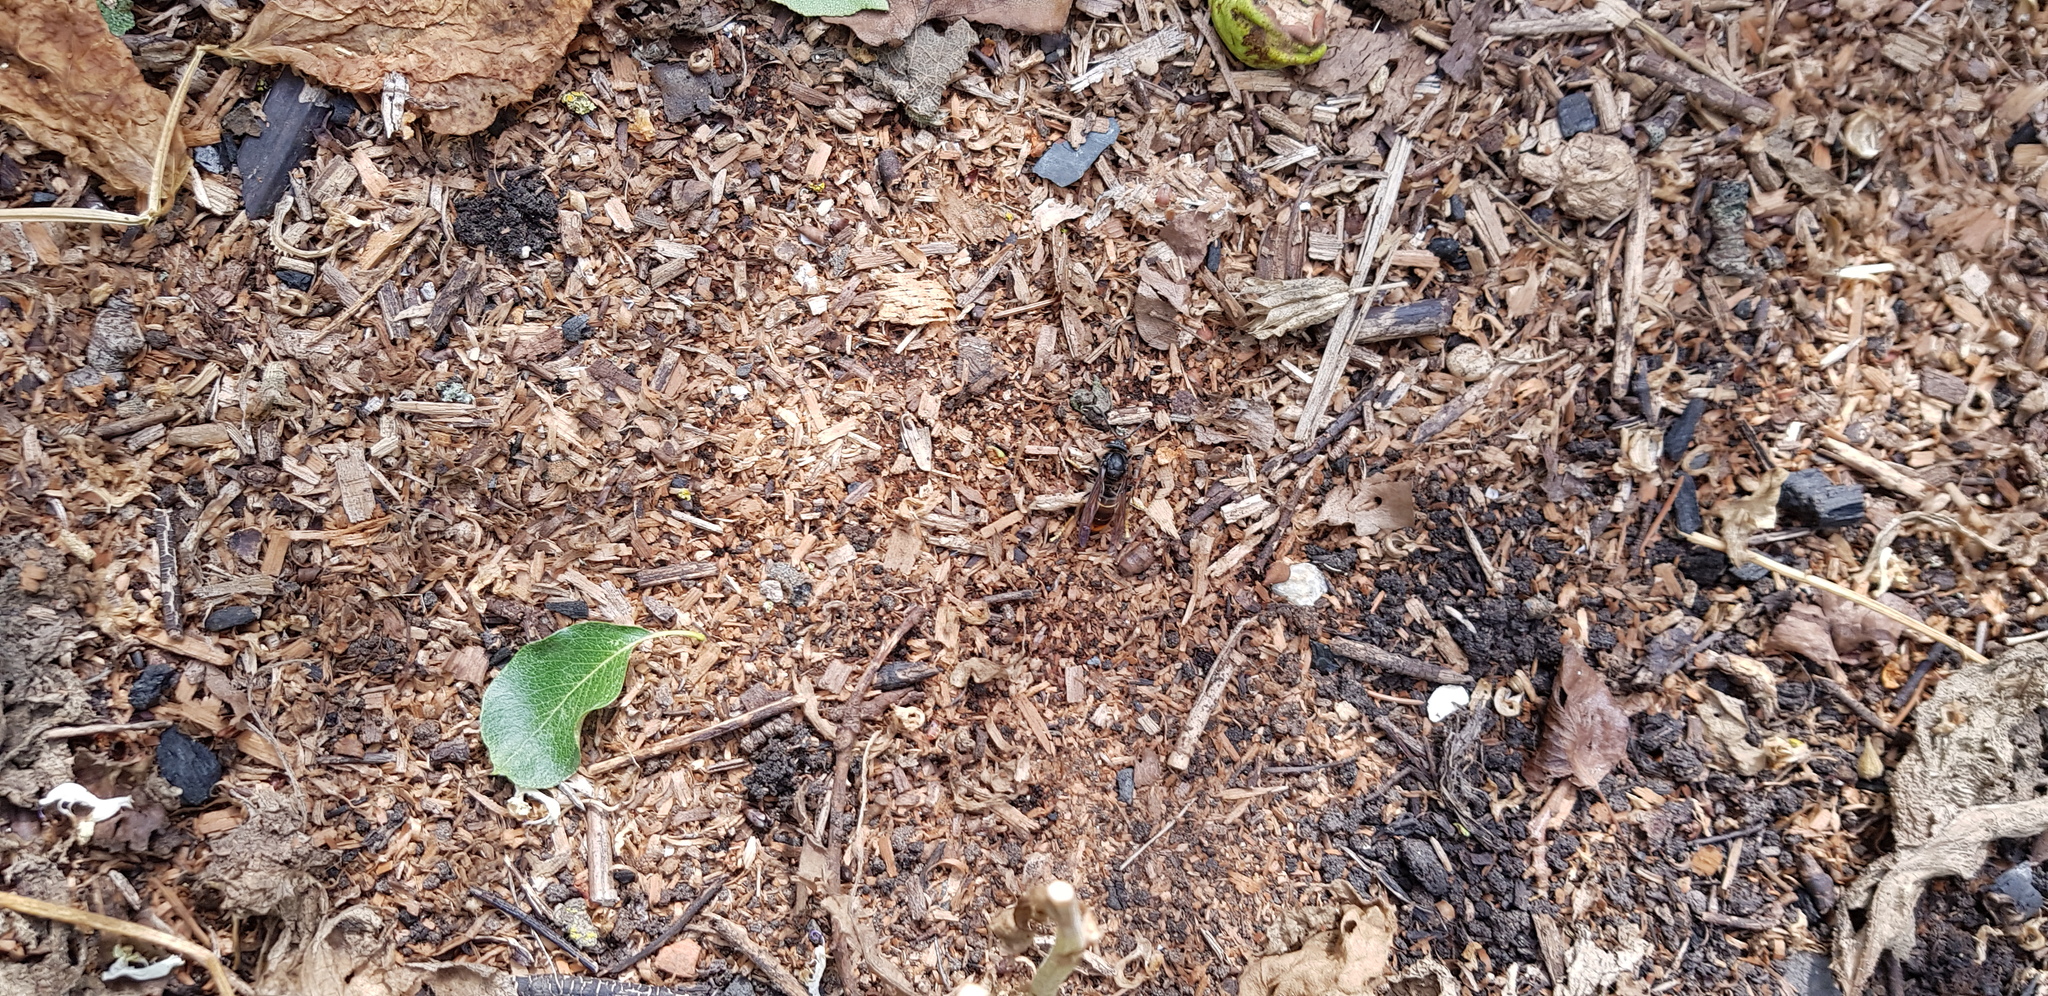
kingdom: Animalia
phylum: Arthropoda
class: Insecta
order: Hymenoptera
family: Vespidae
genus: Vespa
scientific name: Vespa velutina
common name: Asian hornet
